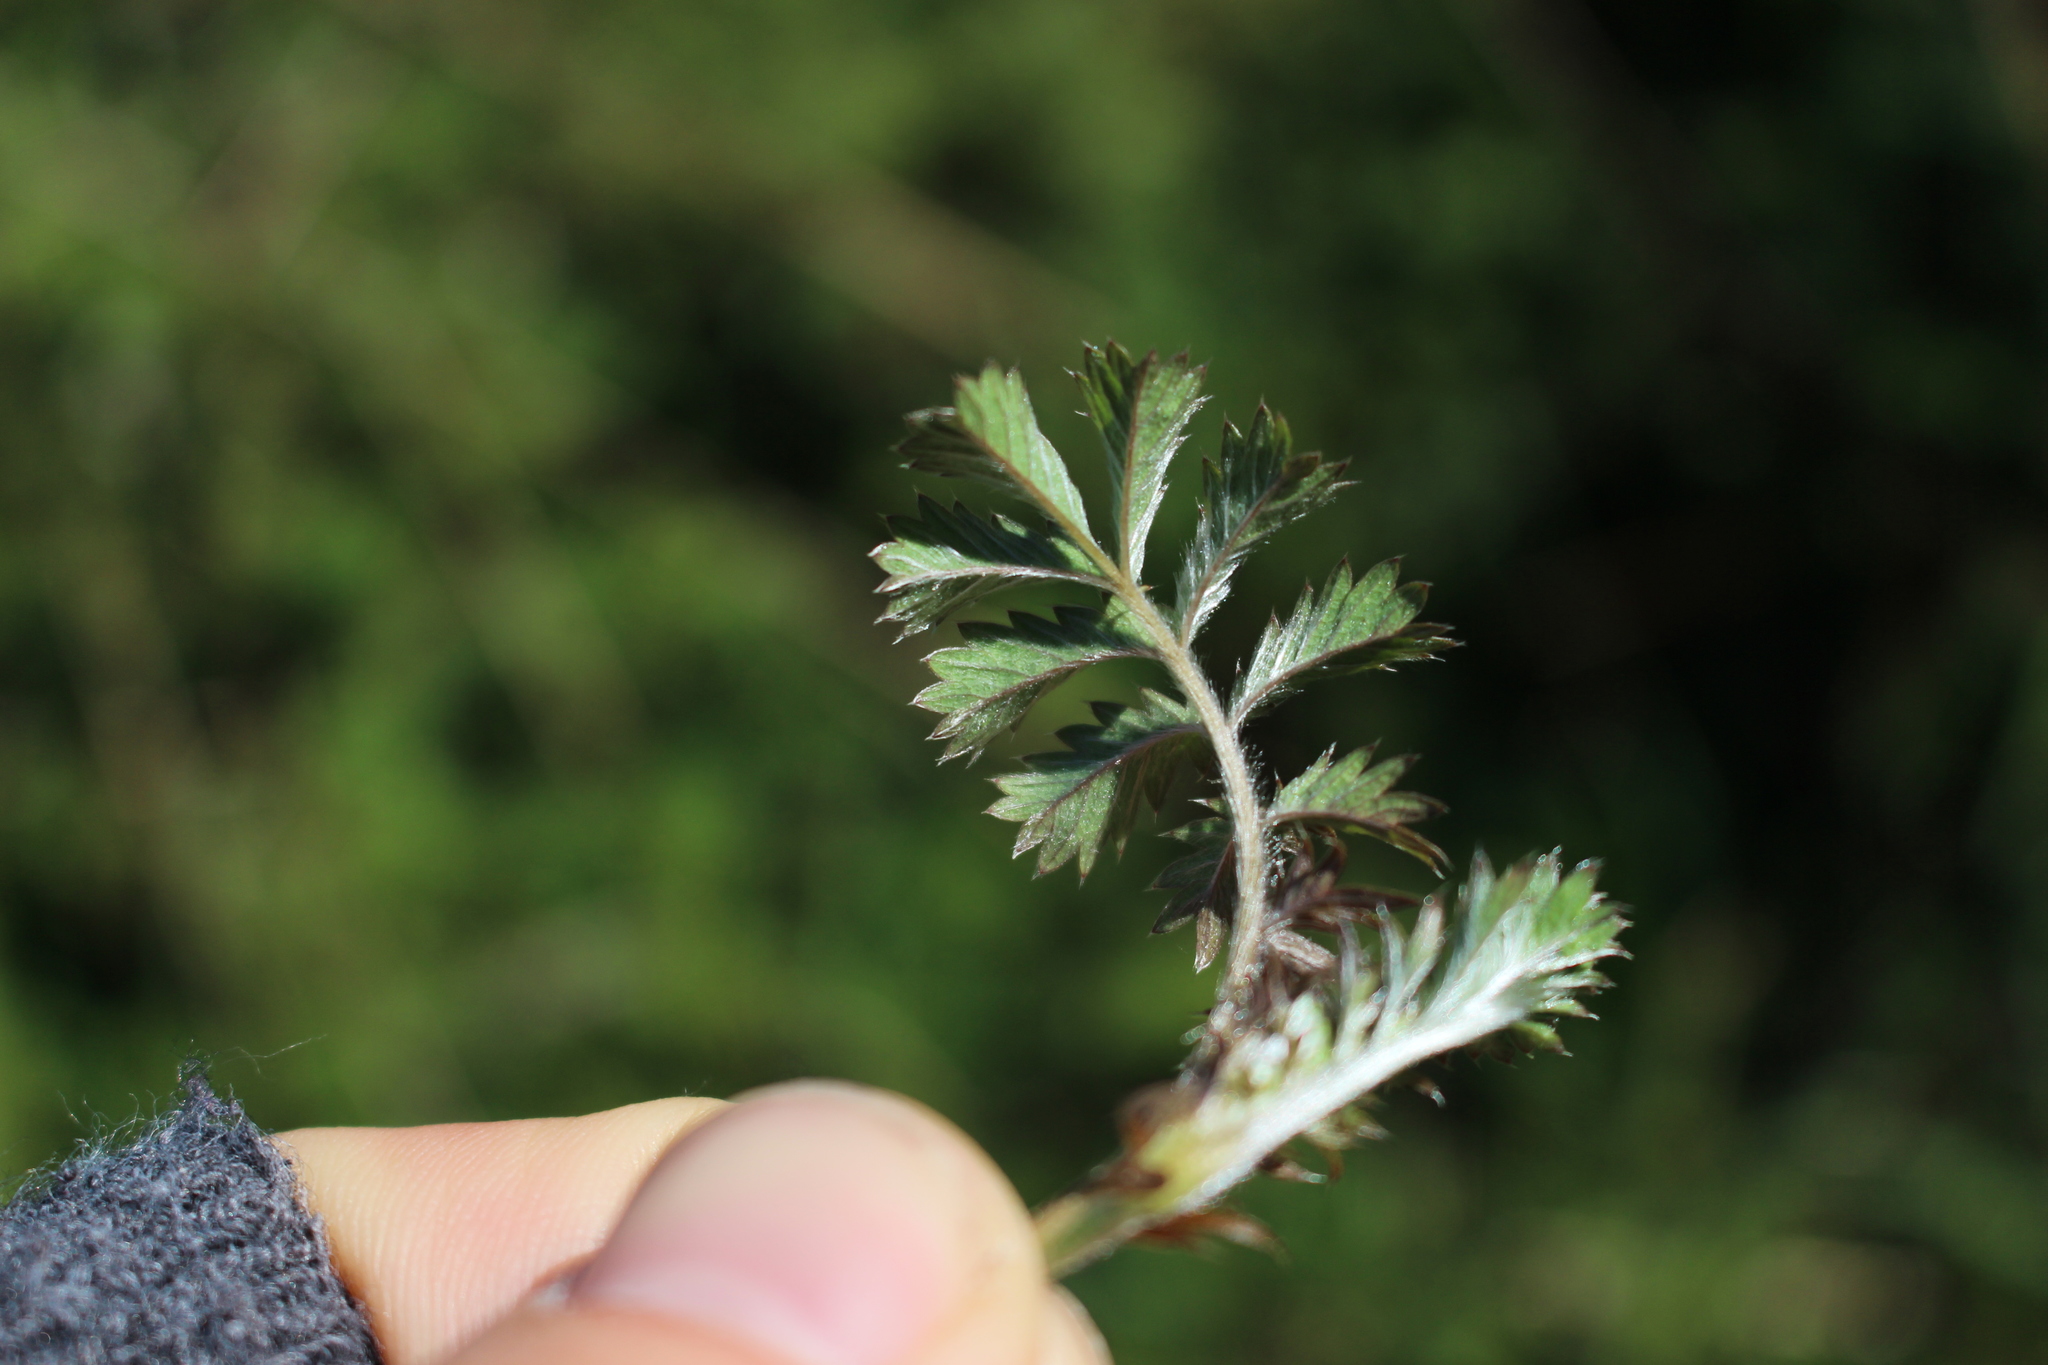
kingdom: Plantae
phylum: Tracheophyta
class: Magnoliopsida
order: Rosales
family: Rosaceae
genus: Acaena
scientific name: Acaena anserinifolia
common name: Bronze pirri-pirri-bur
